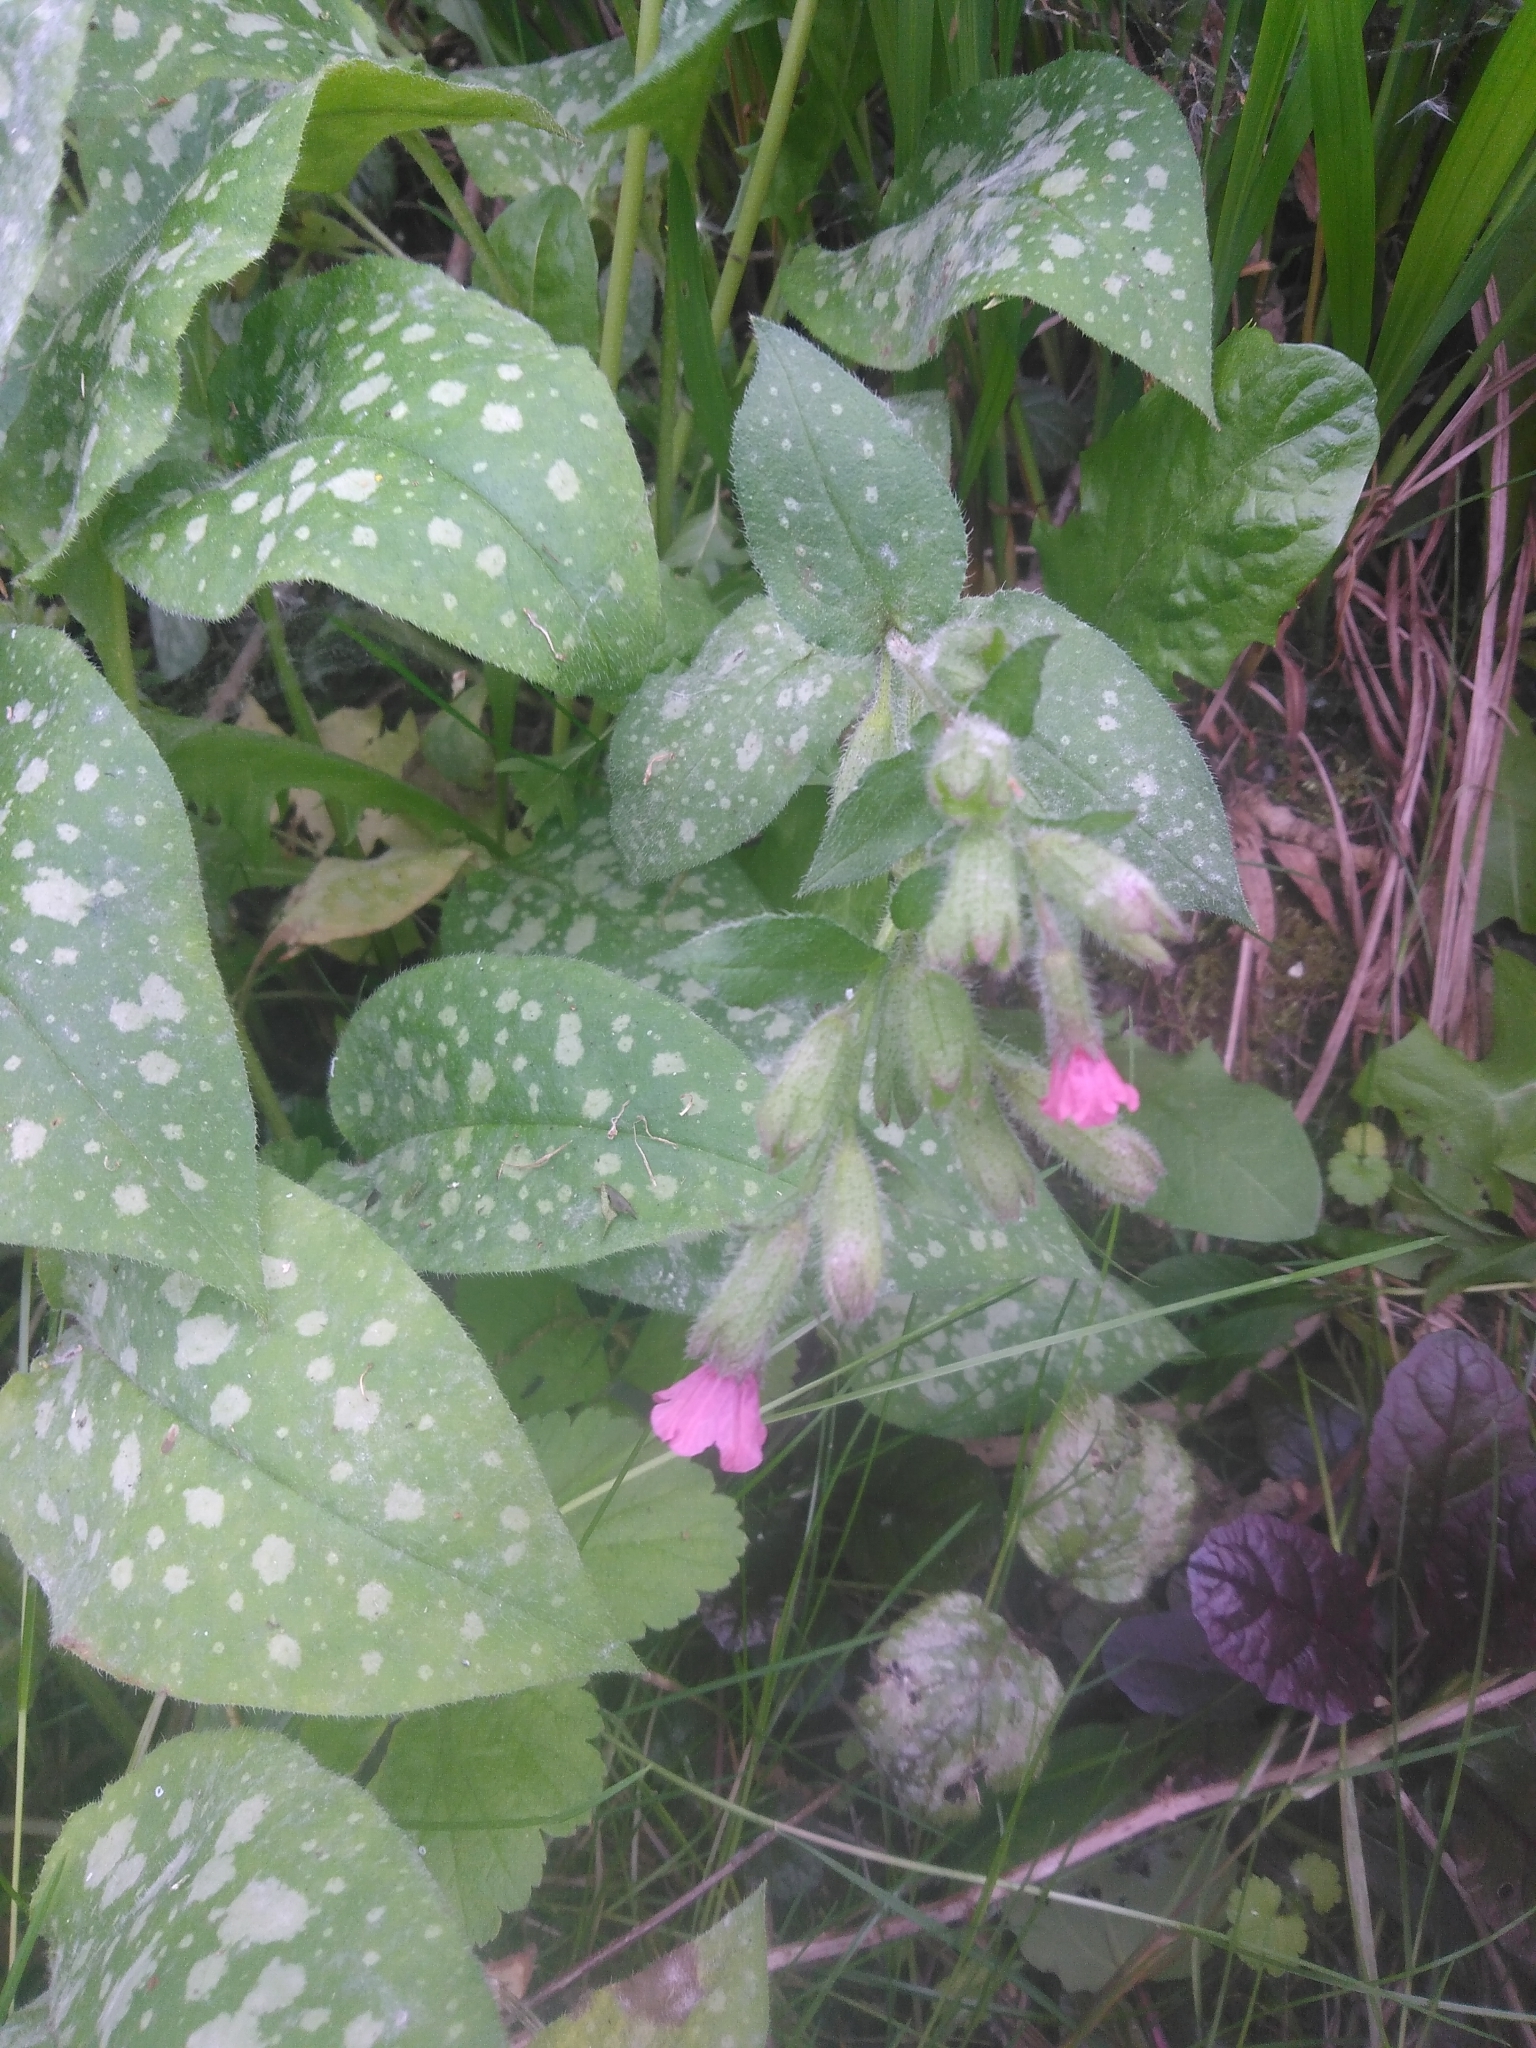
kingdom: Plantae
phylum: Tracheophyta
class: Magnoliopsida
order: Boraginales
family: Boraginaceae
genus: Pulmonaria
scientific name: Pulmonaria officinalis
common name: Lungwort
